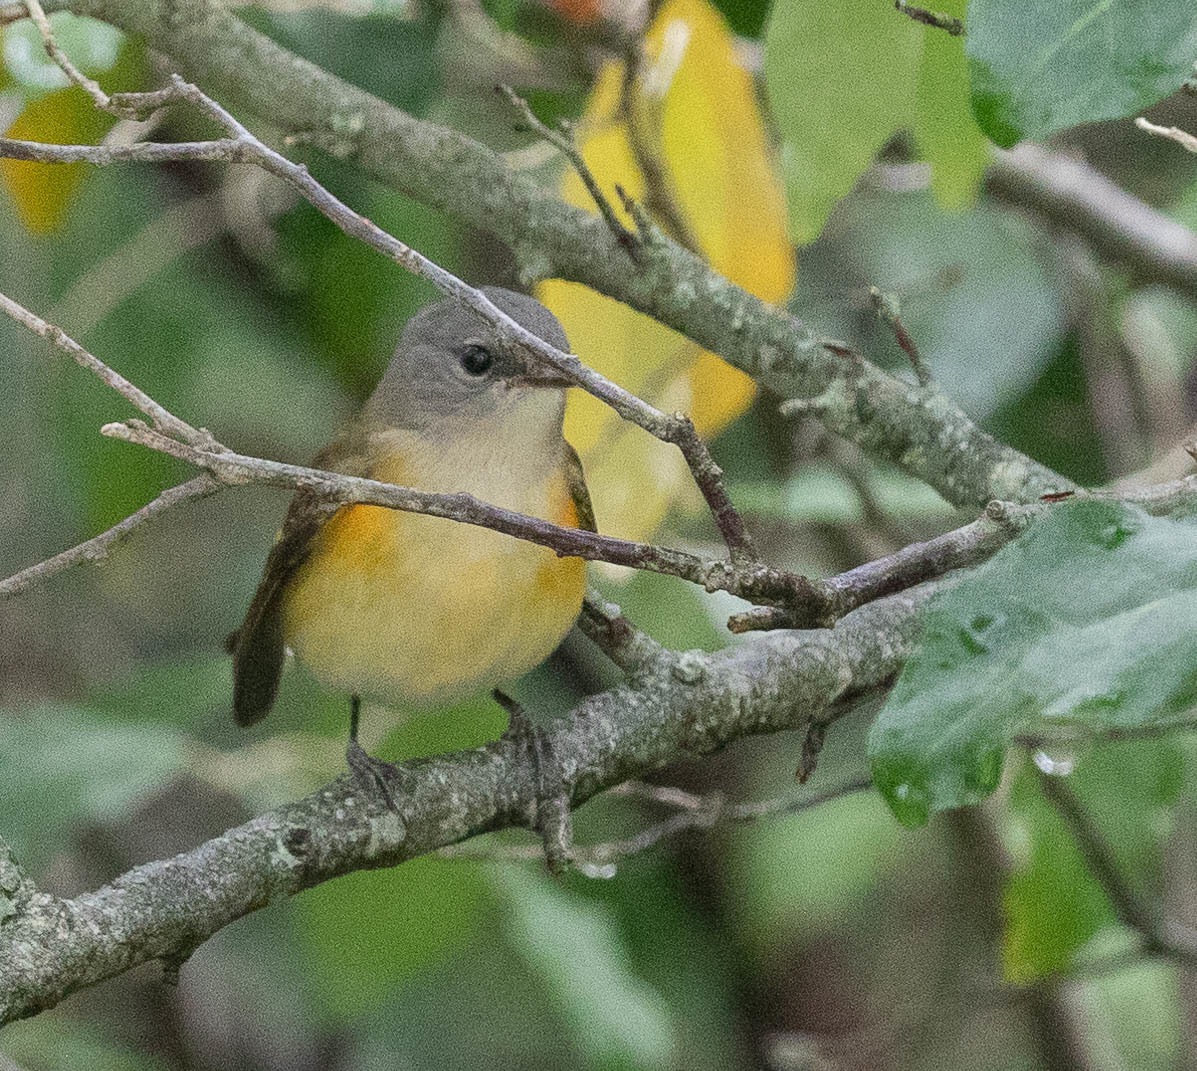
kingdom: Animalia
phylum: Chordata
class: Aves
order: Passeriformes
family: Parulidae
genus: Setophaga
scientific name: Setophaga ruticilla
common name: American redstart
